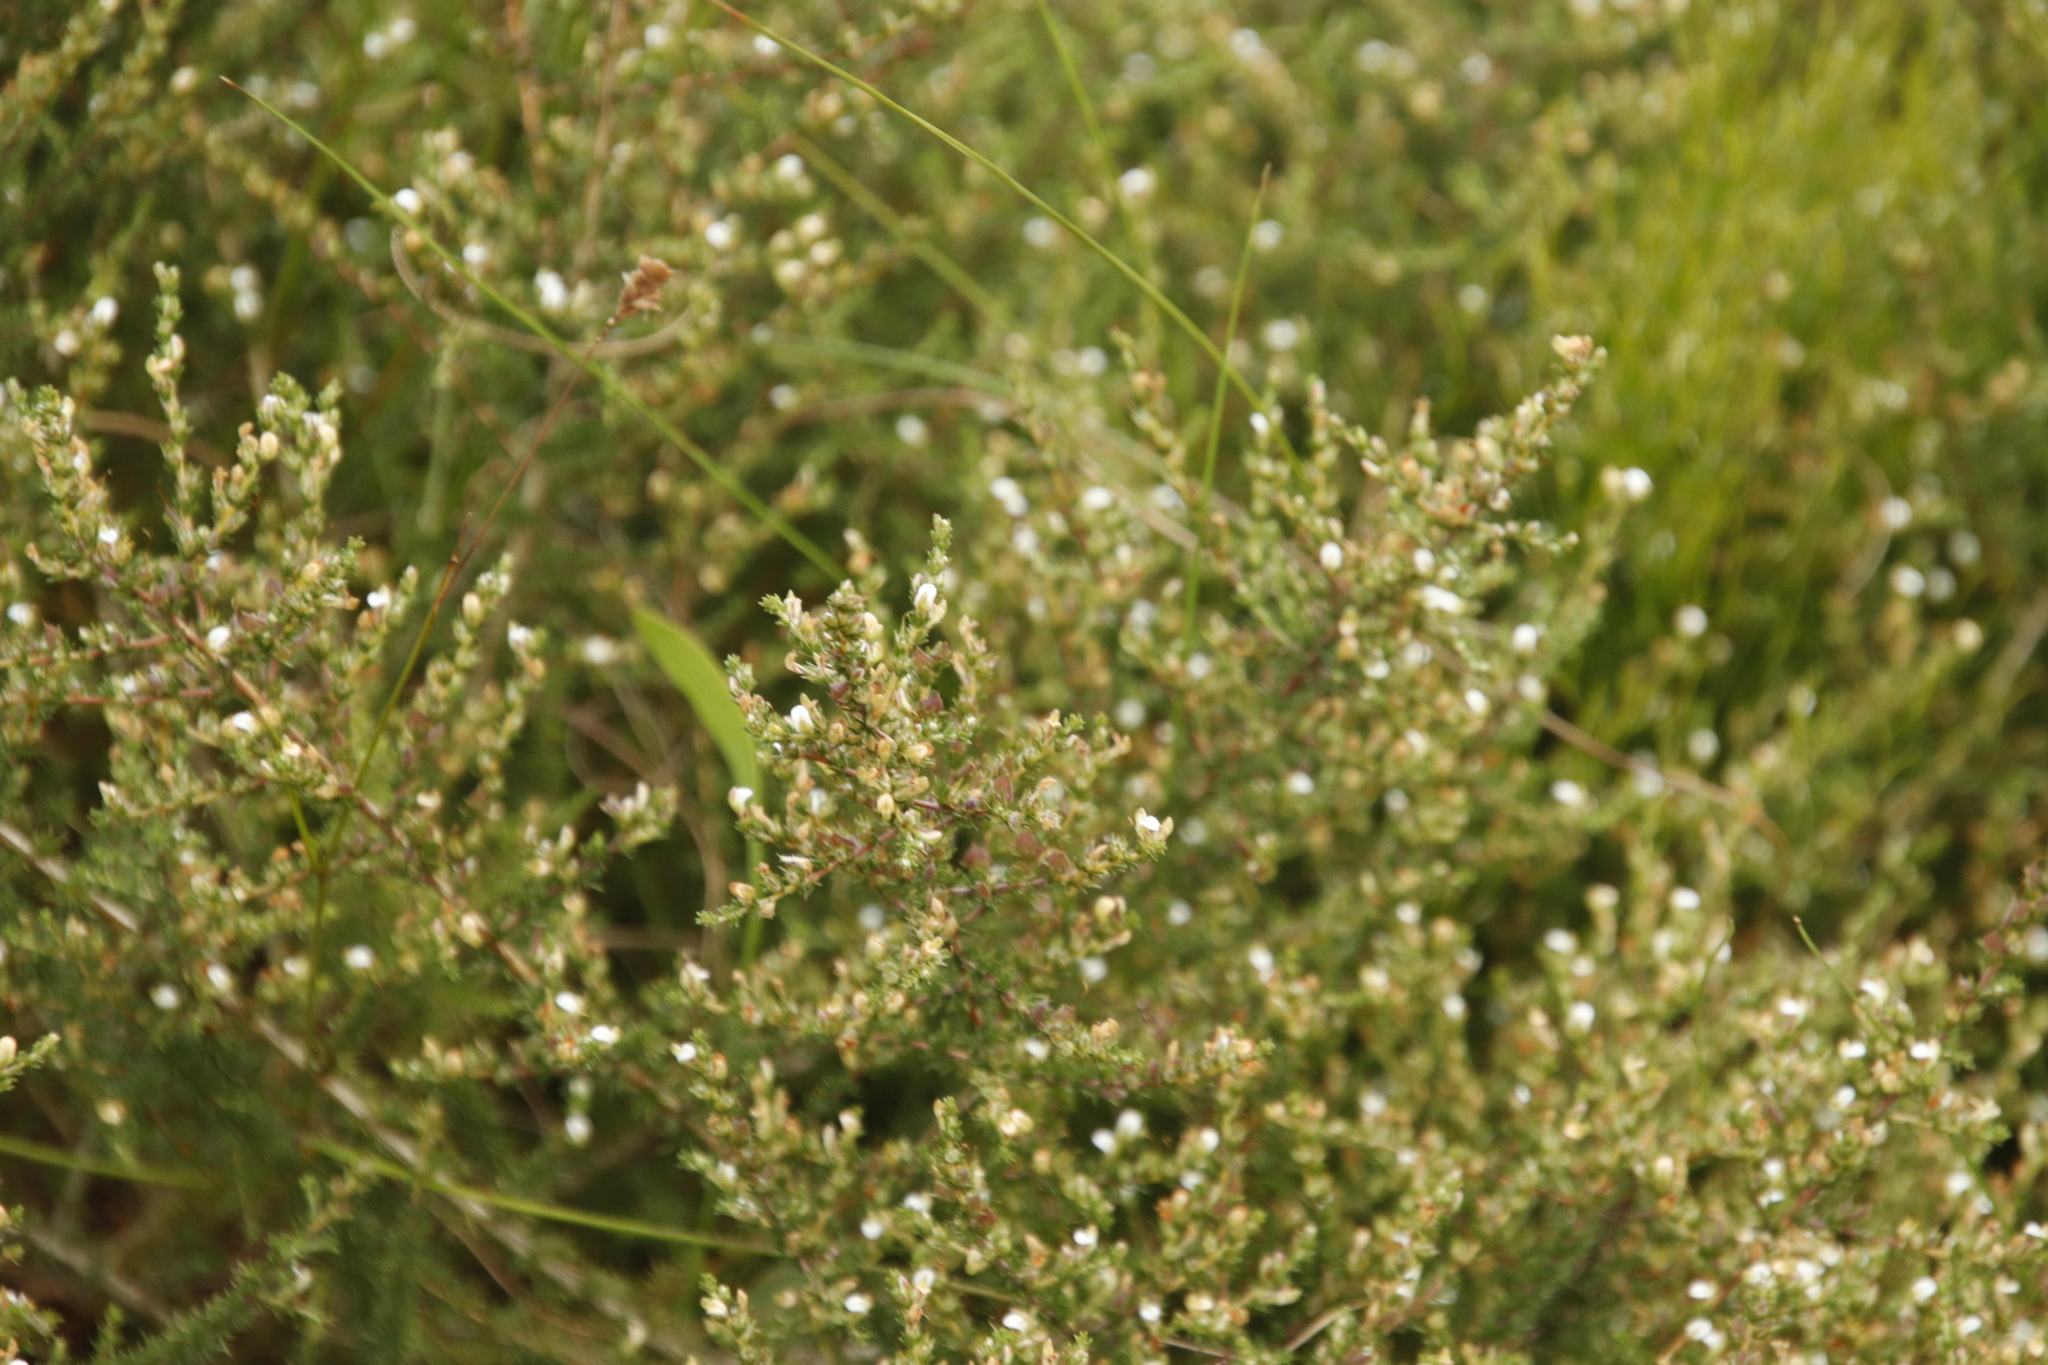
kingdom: Plantae
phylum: Tracheophyta
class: Magnoliopsida
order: Fabales
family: Fabaceae
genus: Aspalathus
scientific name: Aspalathus hispida
